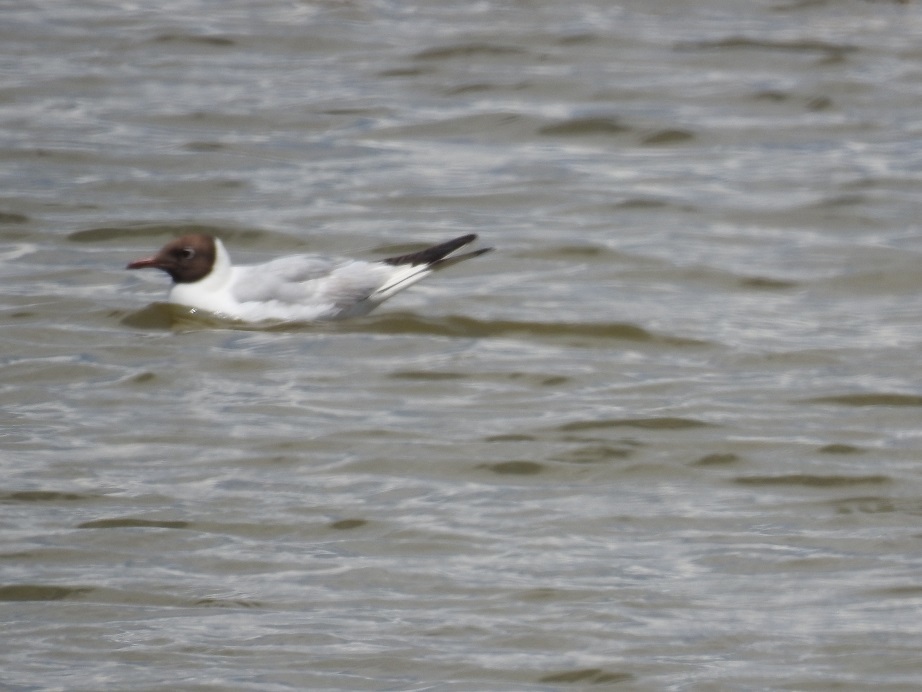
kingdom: Animalia
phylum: Chordata
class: Aves
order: Charadriiformes
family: Laridae
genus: Chroicocephalus
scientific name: Chroicocephalus ridibundus
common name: Black-headed gull
